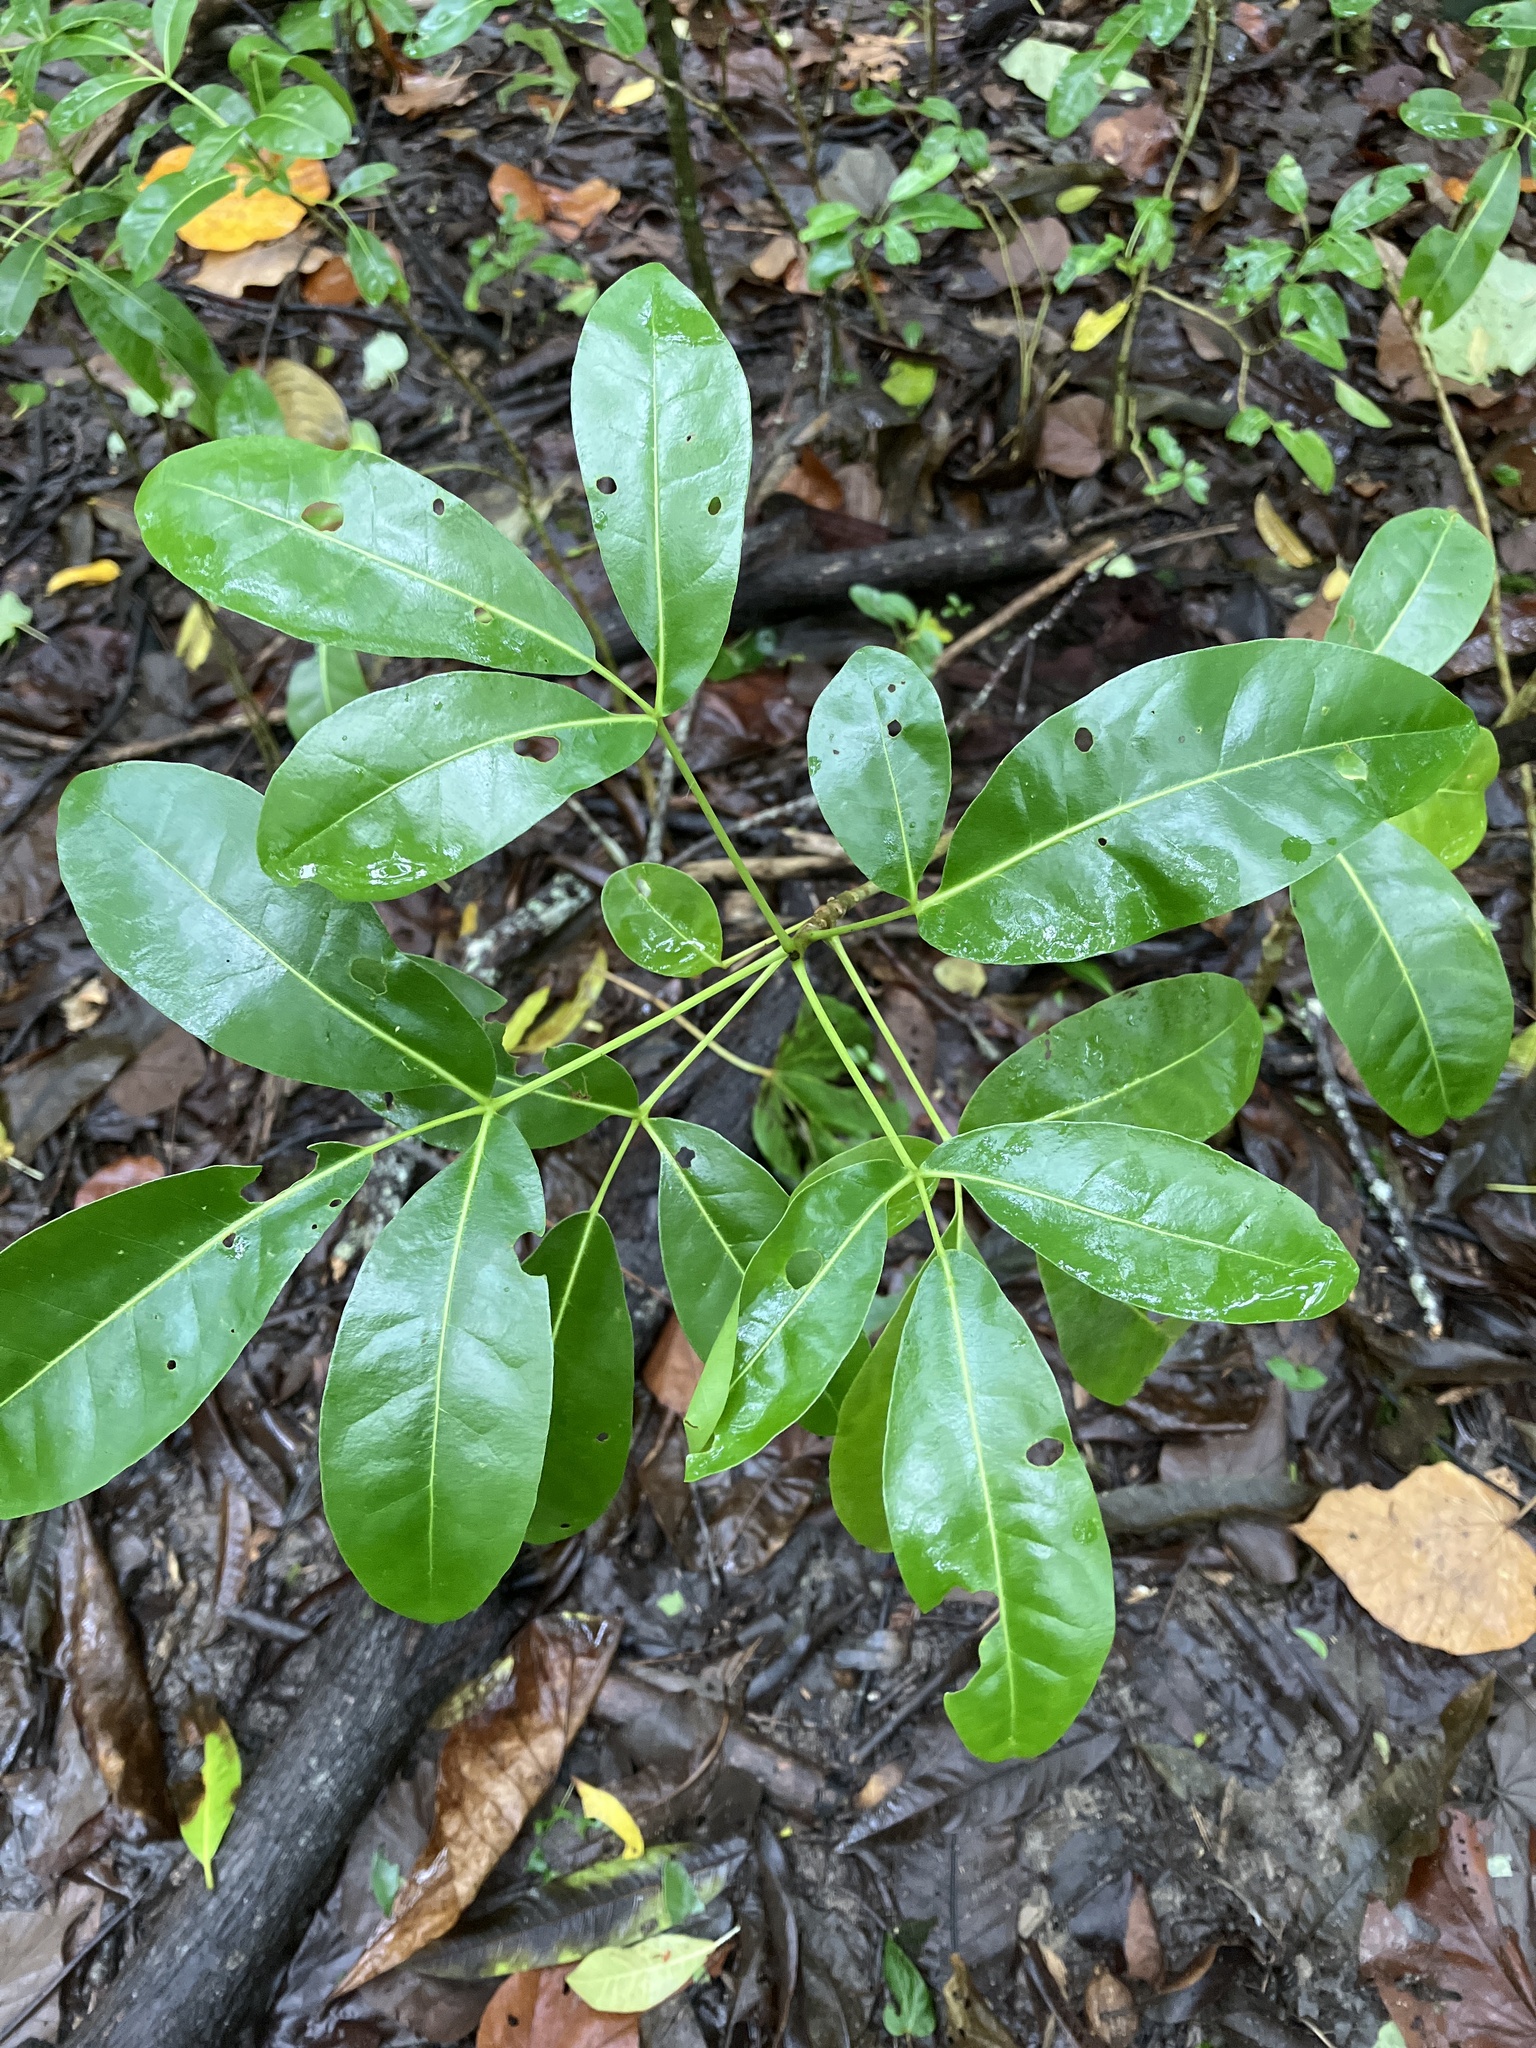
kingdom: Plantae
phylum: Tracheophyta
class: Magnoliopsida
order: Lamiales
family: Bignoniaceae
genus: Tabebuia
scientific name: Tabebuia heterophylla
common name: White cedar
